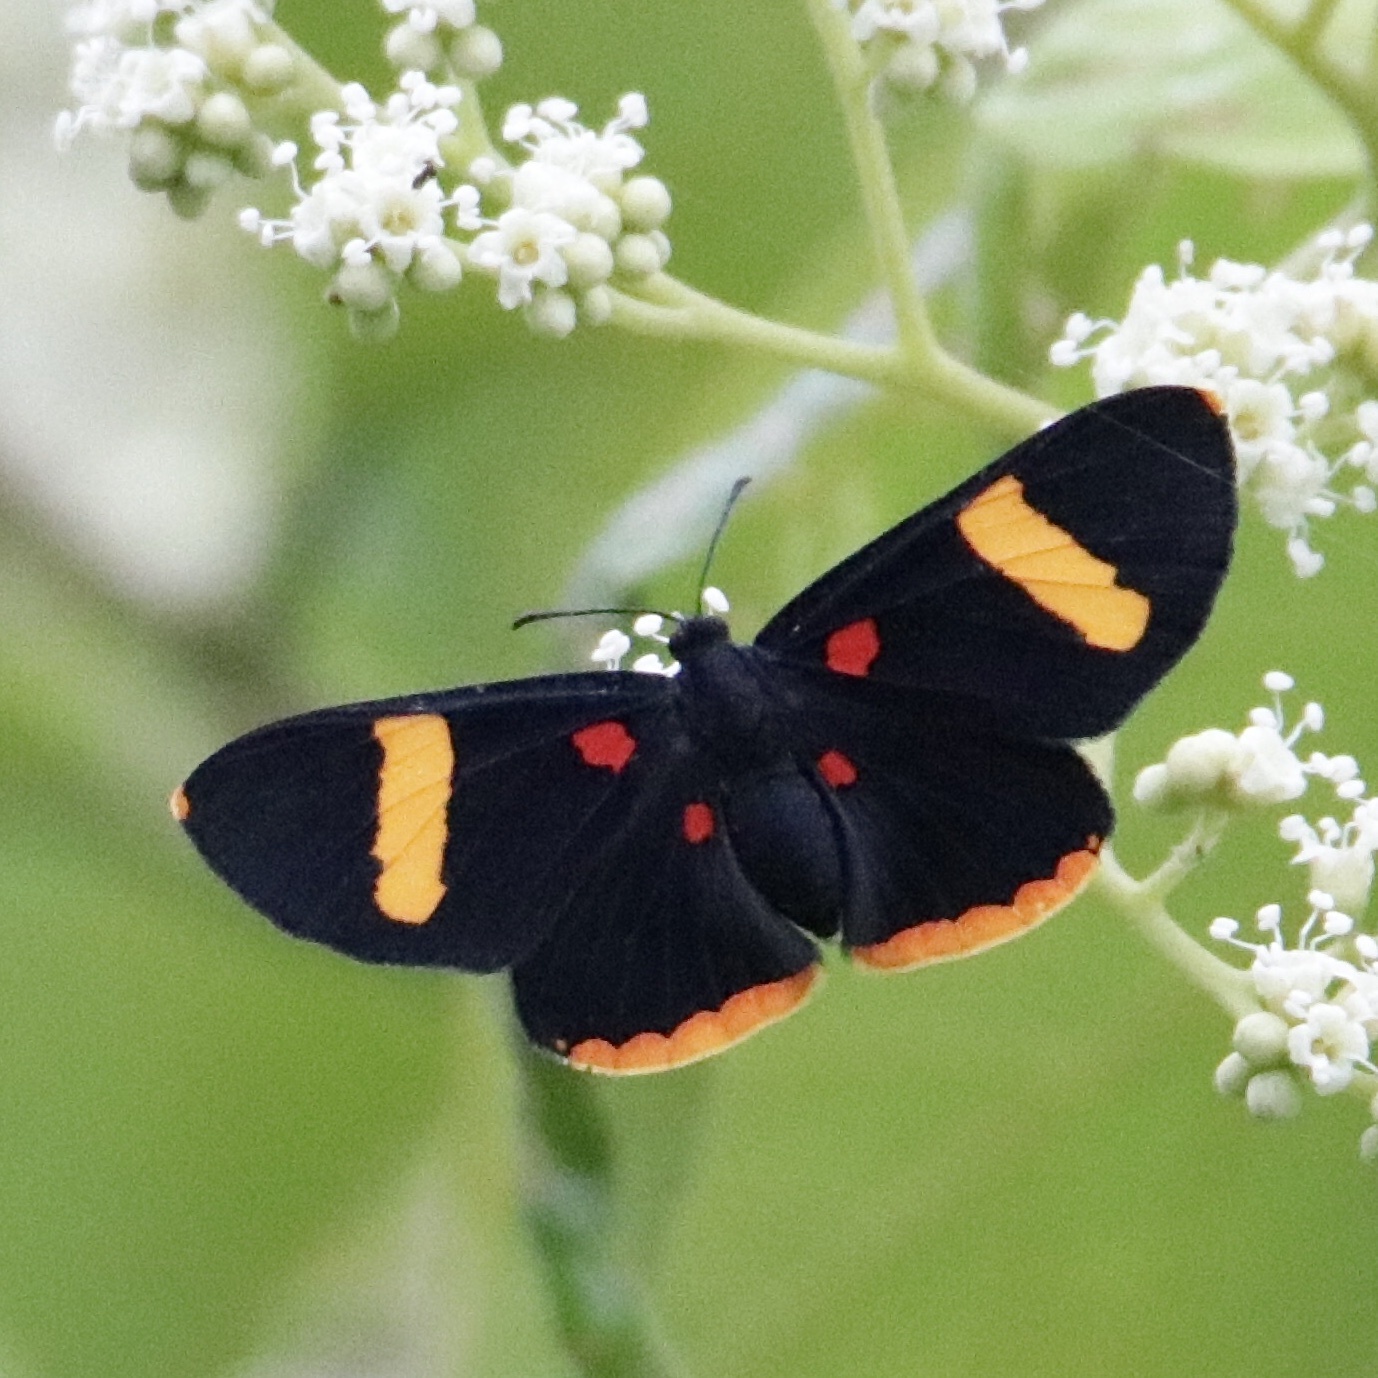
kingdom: Animalia
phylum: Arthropoda
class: Insecta
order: Lepidoptera
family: Lycaenidae
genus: Melanis
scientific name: Melanis electron
